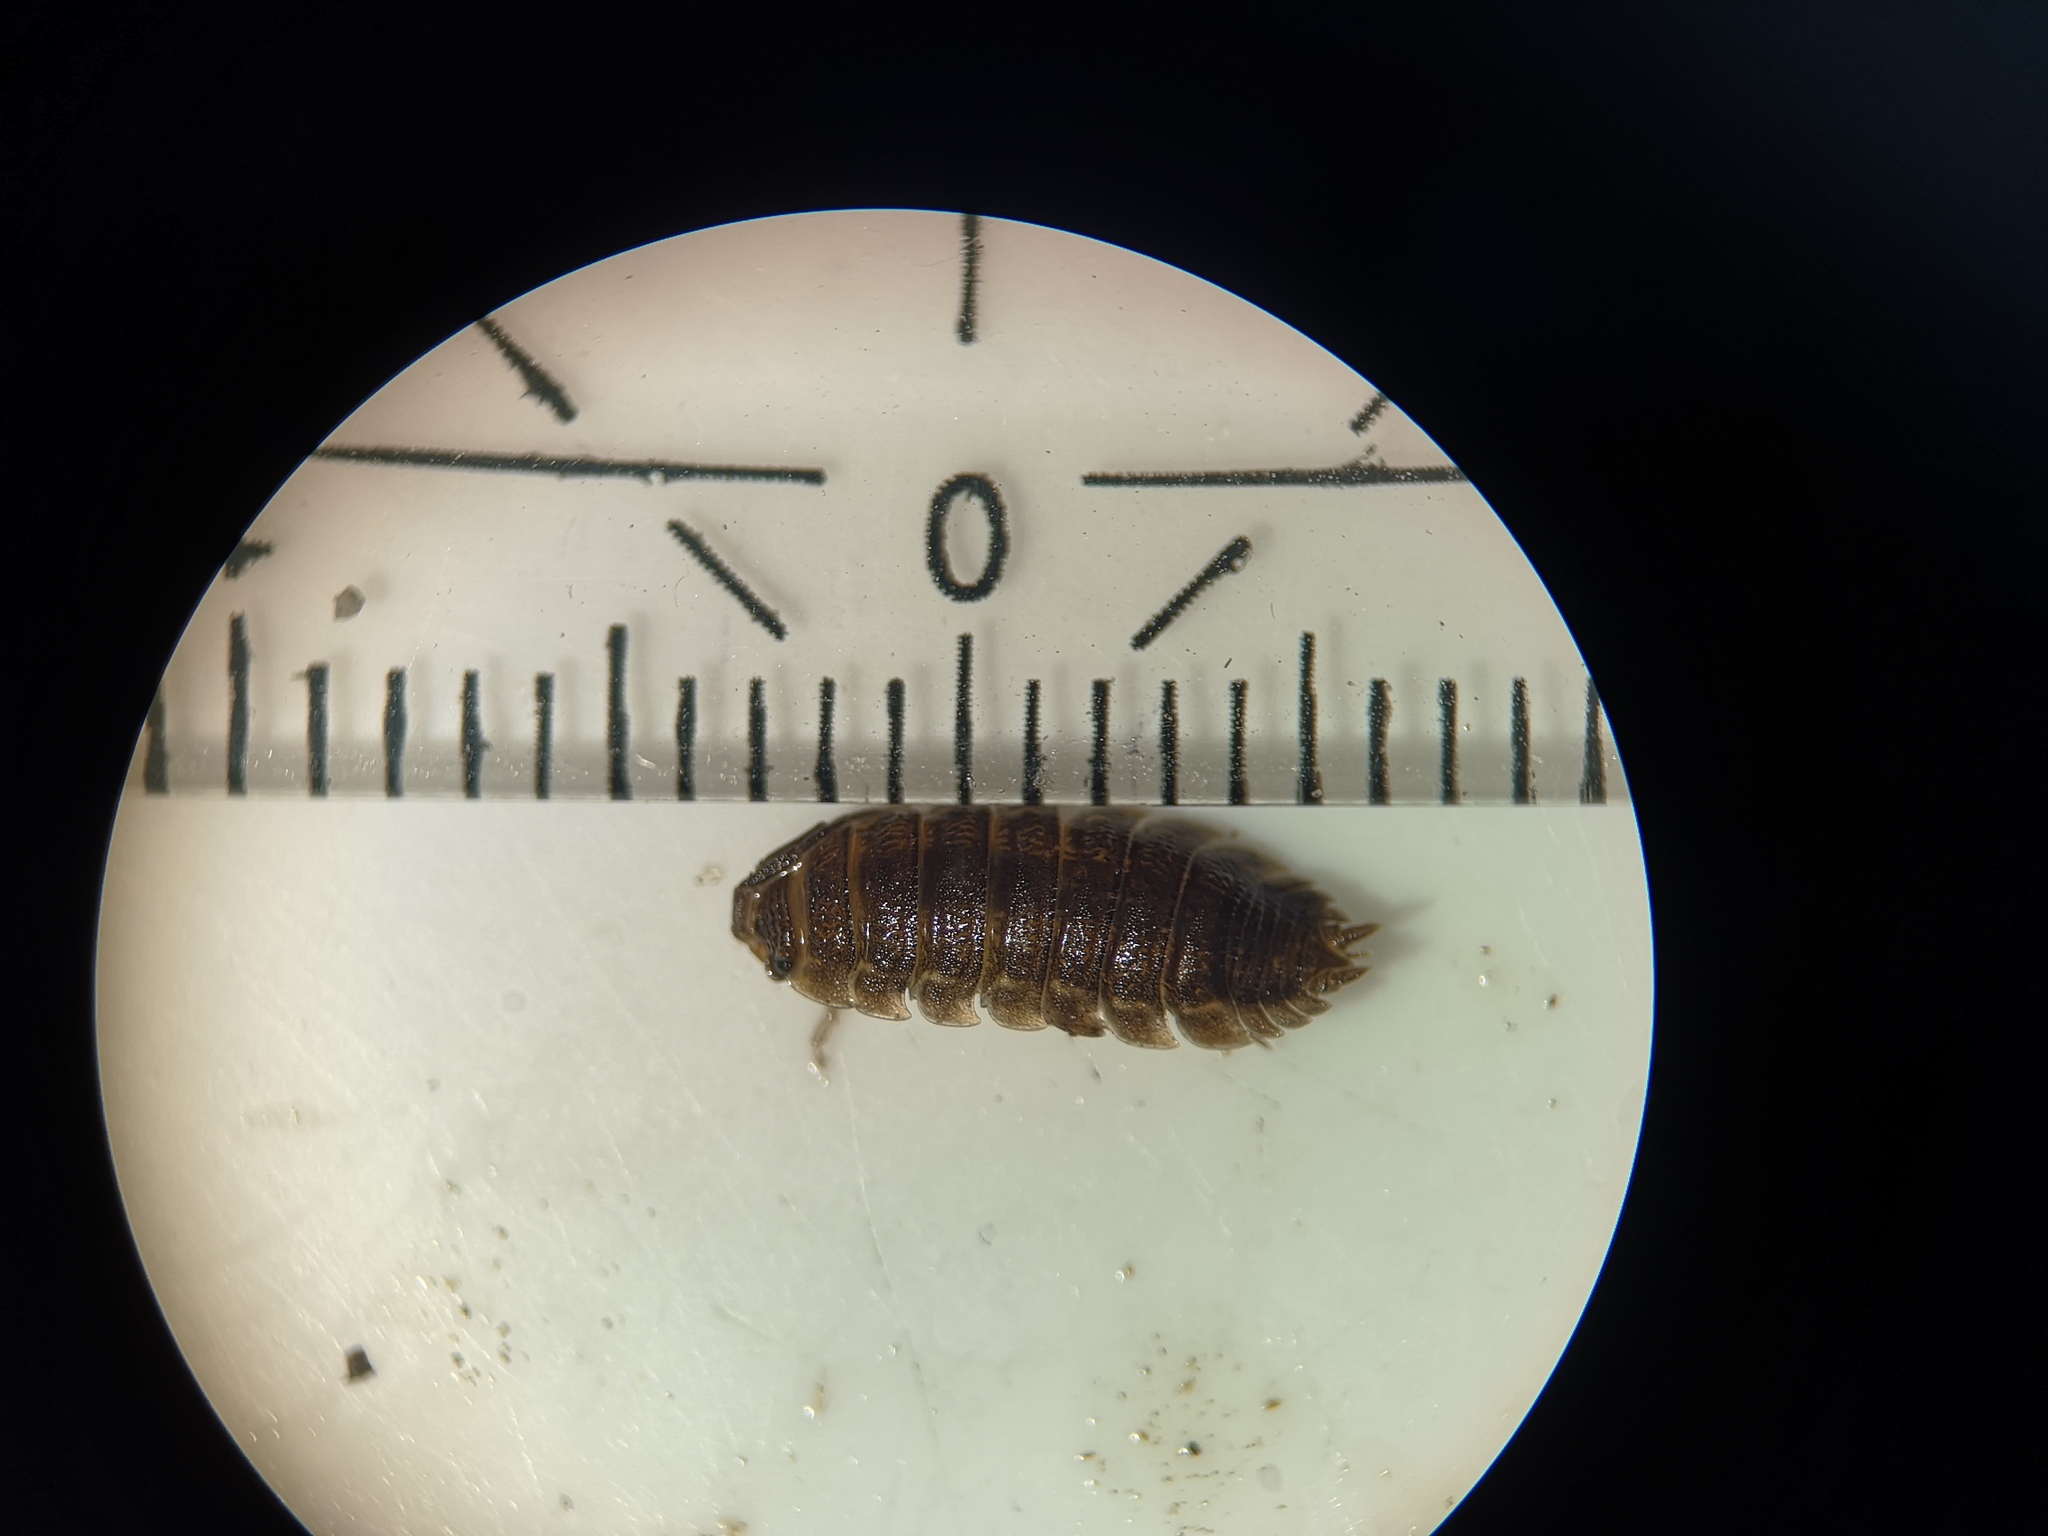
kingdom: Animalia
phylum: Arthropoda
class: Malacostraca
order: Isopoda
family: Porcellionidae
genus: Porcellio
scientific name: Porcellio scaber
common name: Common rough woodlouse
